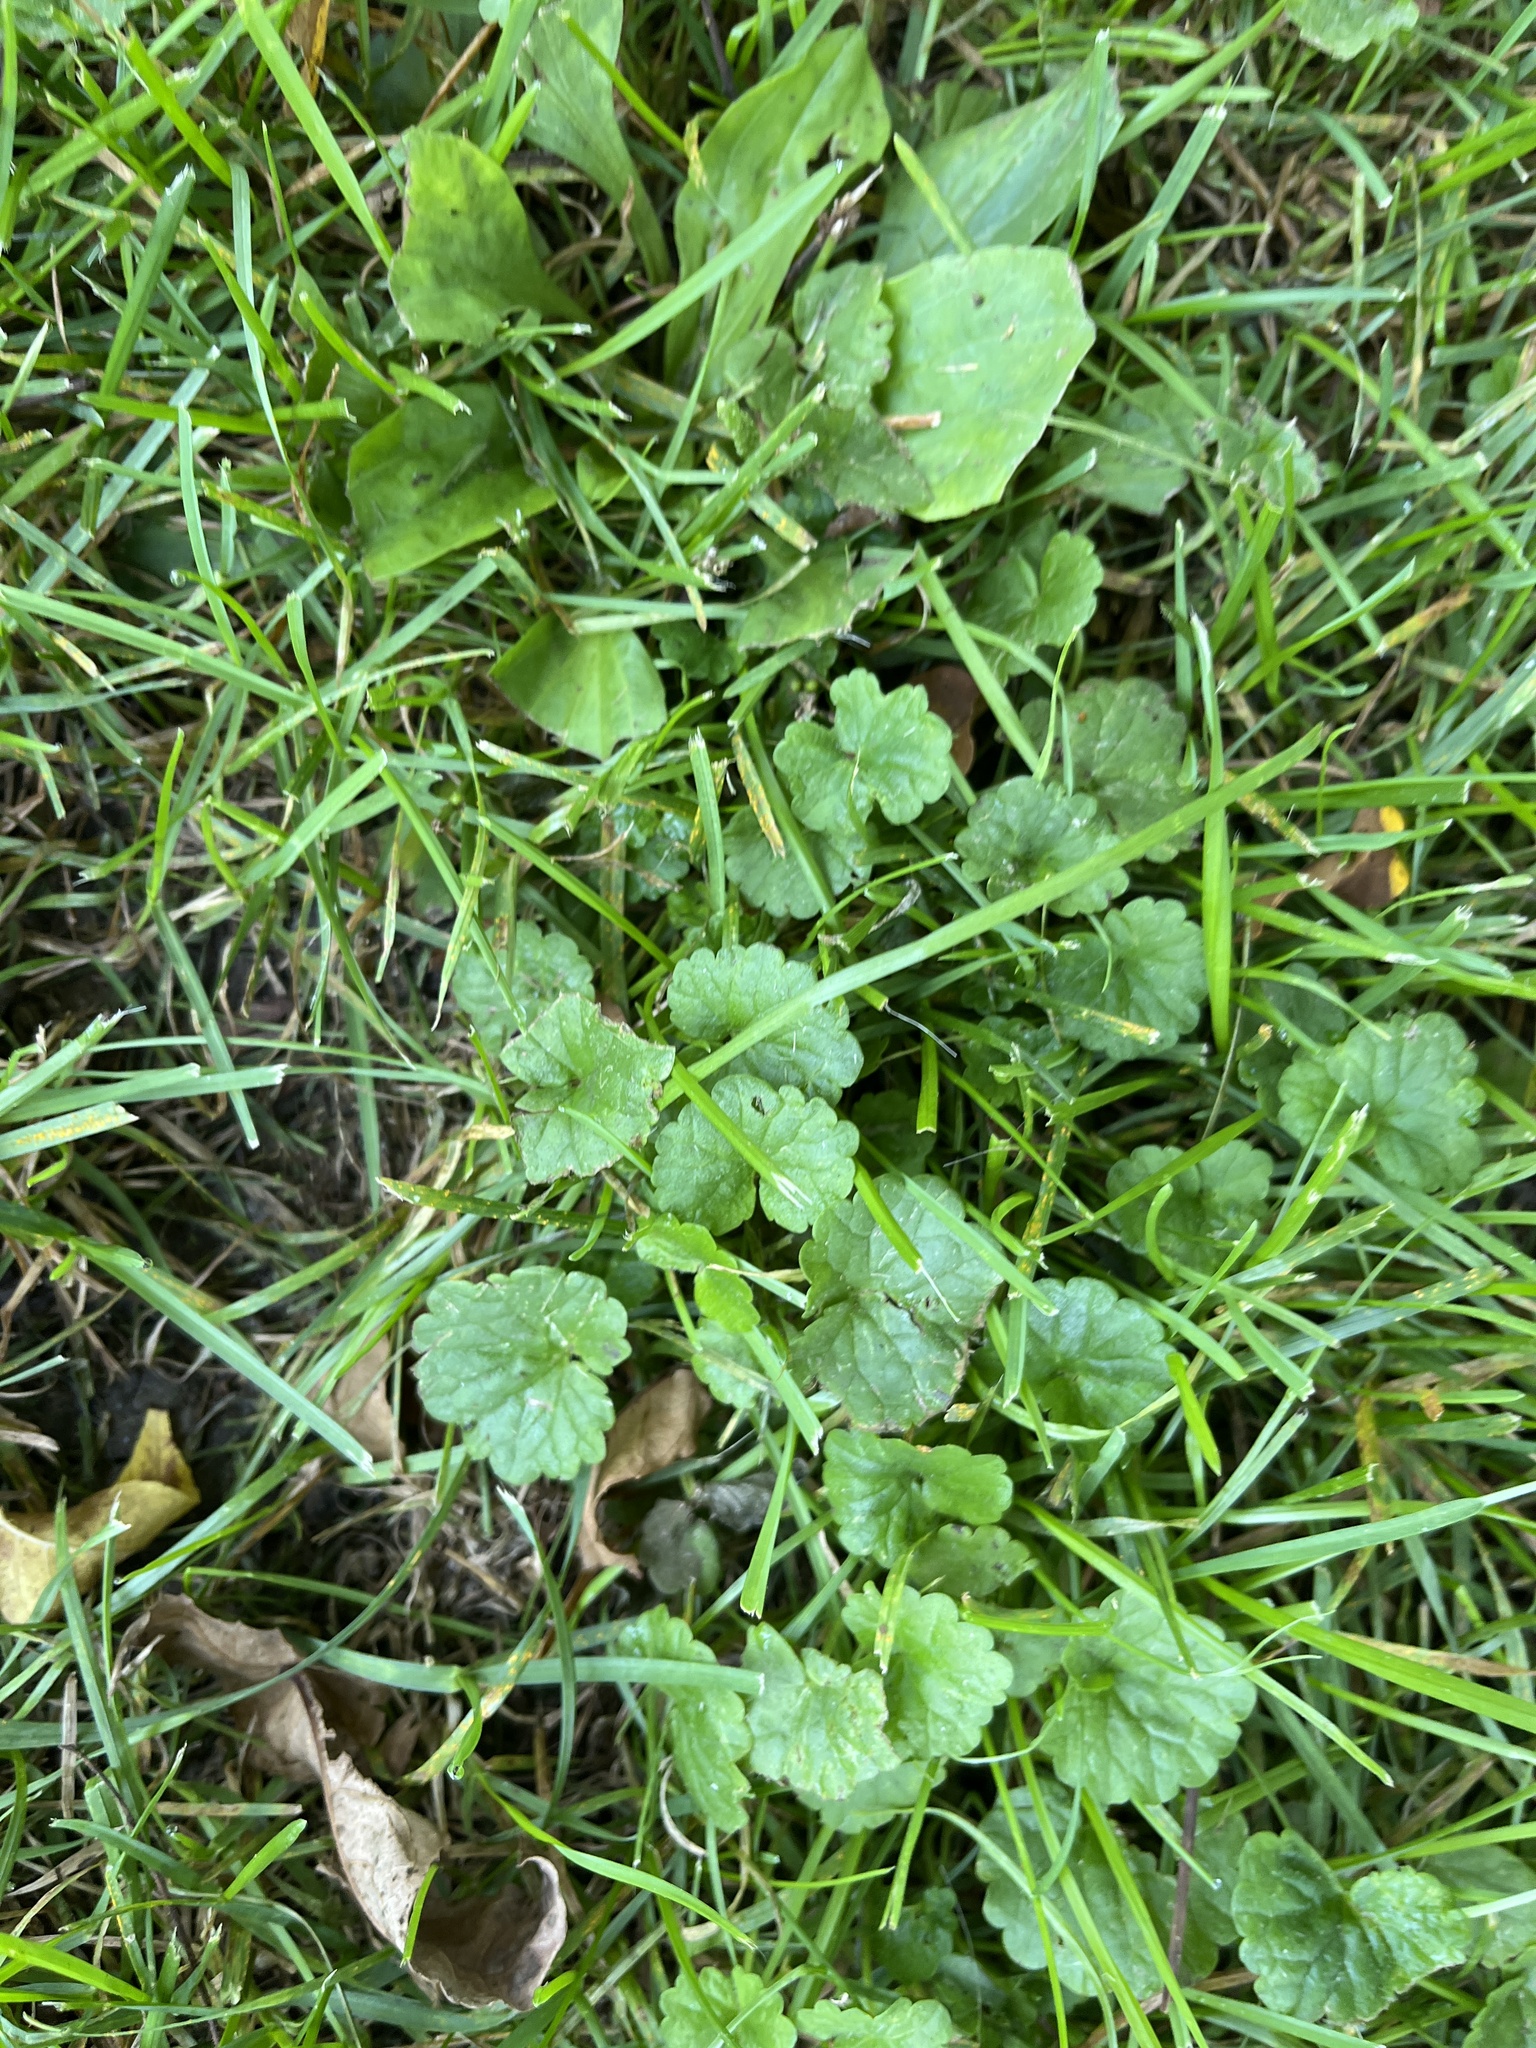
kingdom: Plantae
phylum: Tracheophyta
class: Magnoliopsida
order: Lamiales
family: Lamiaceae
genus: Glechoma
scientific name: Glechoma hederacea
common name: Ground ivy
